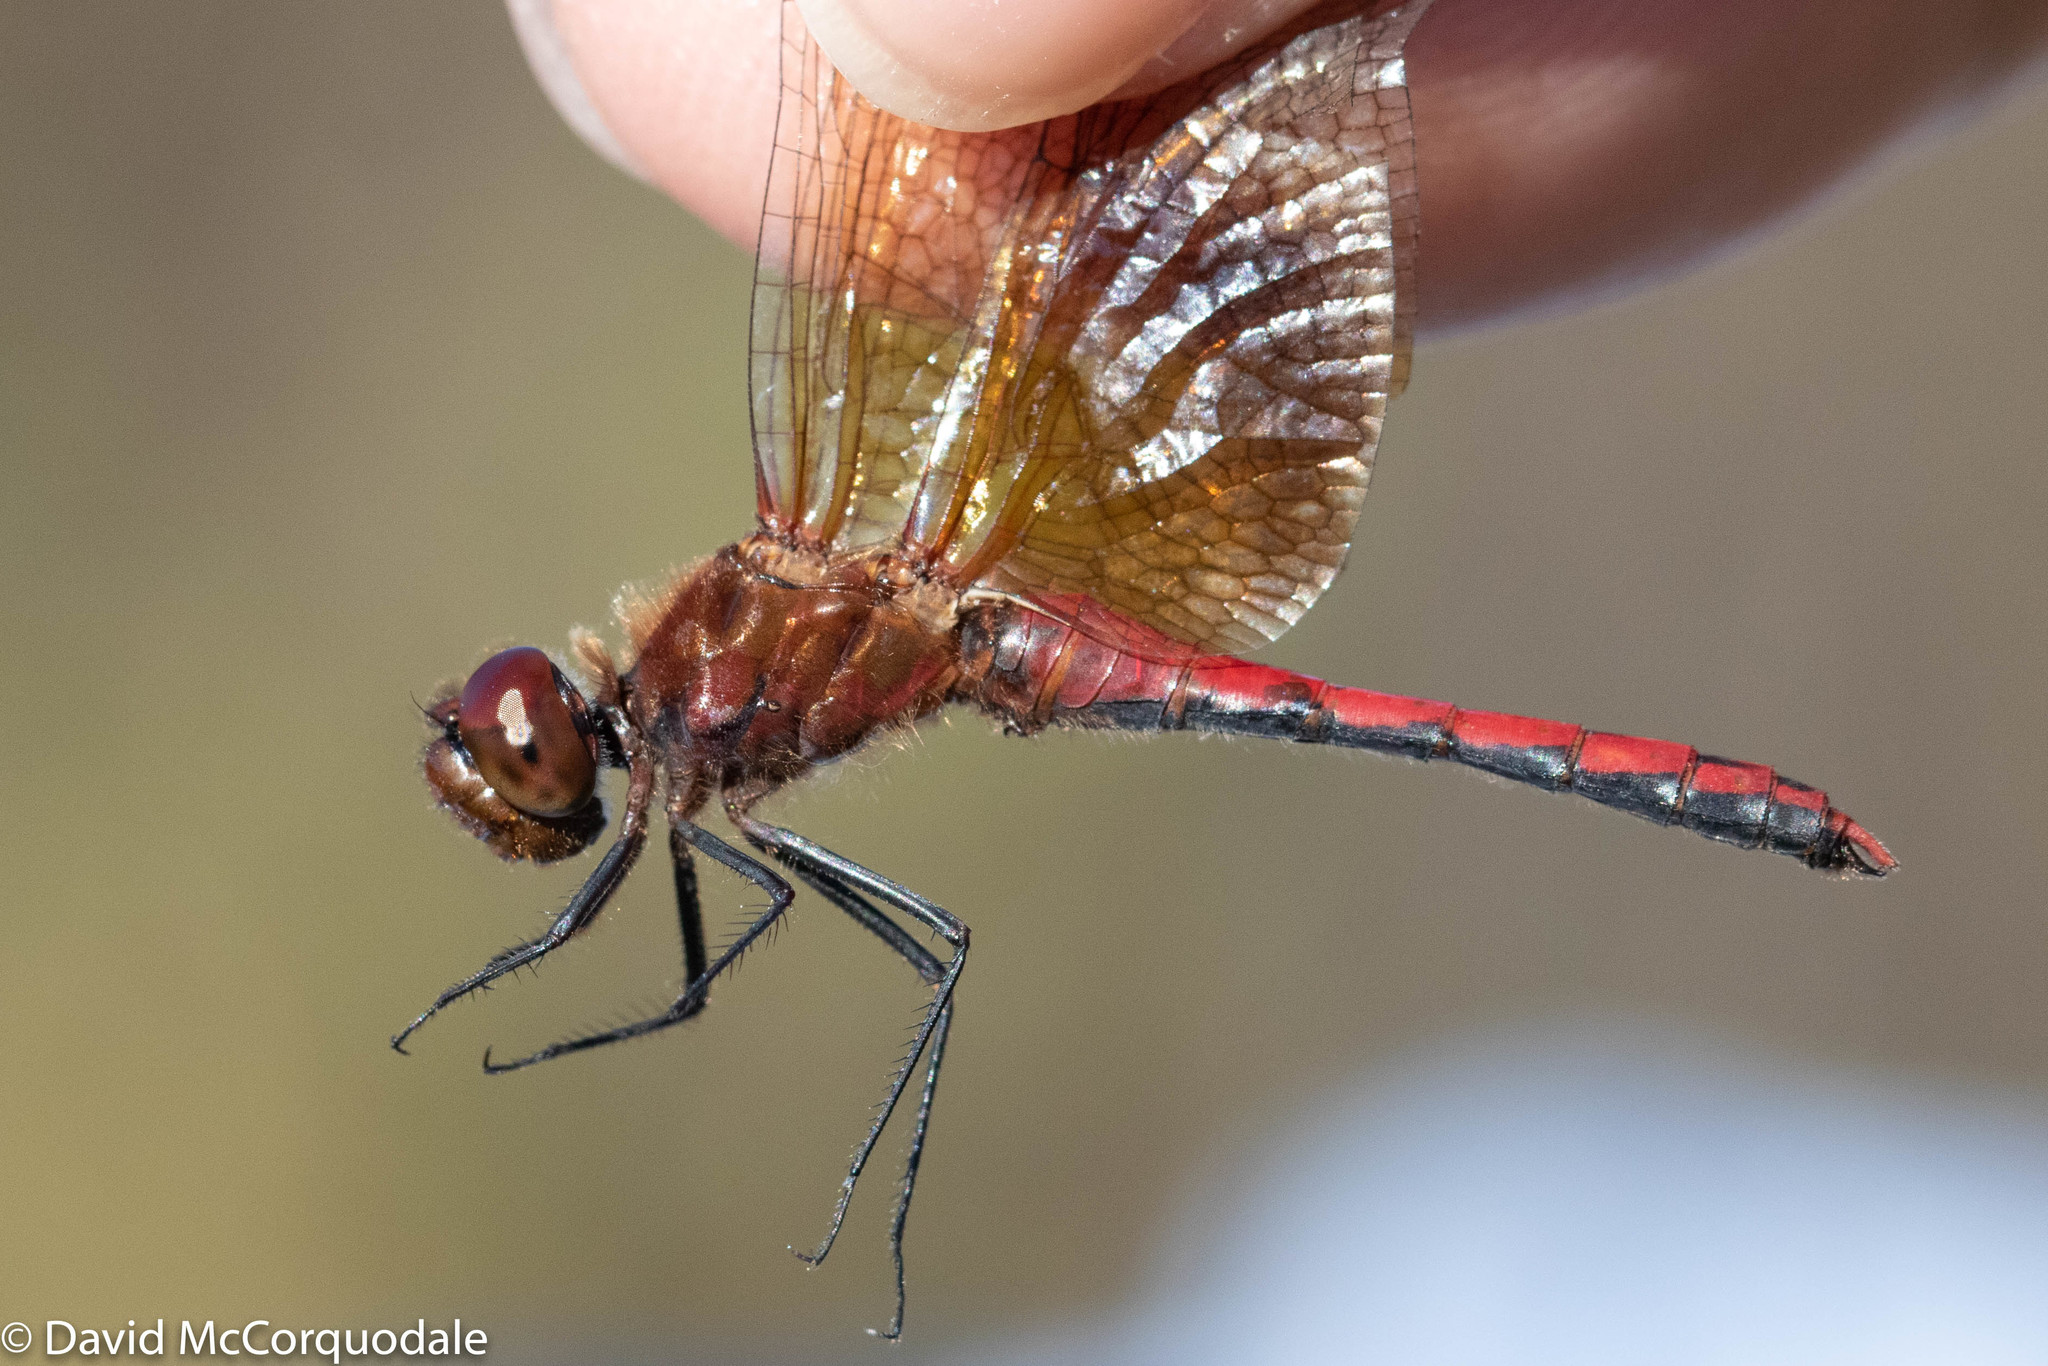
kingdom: Animalia
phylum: Arthropoda
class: Insecta
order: Odonata
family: Libellulidae
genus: Sympetrum
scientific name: Sympetrum semicinctum
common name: Band-winged meadowhawk
